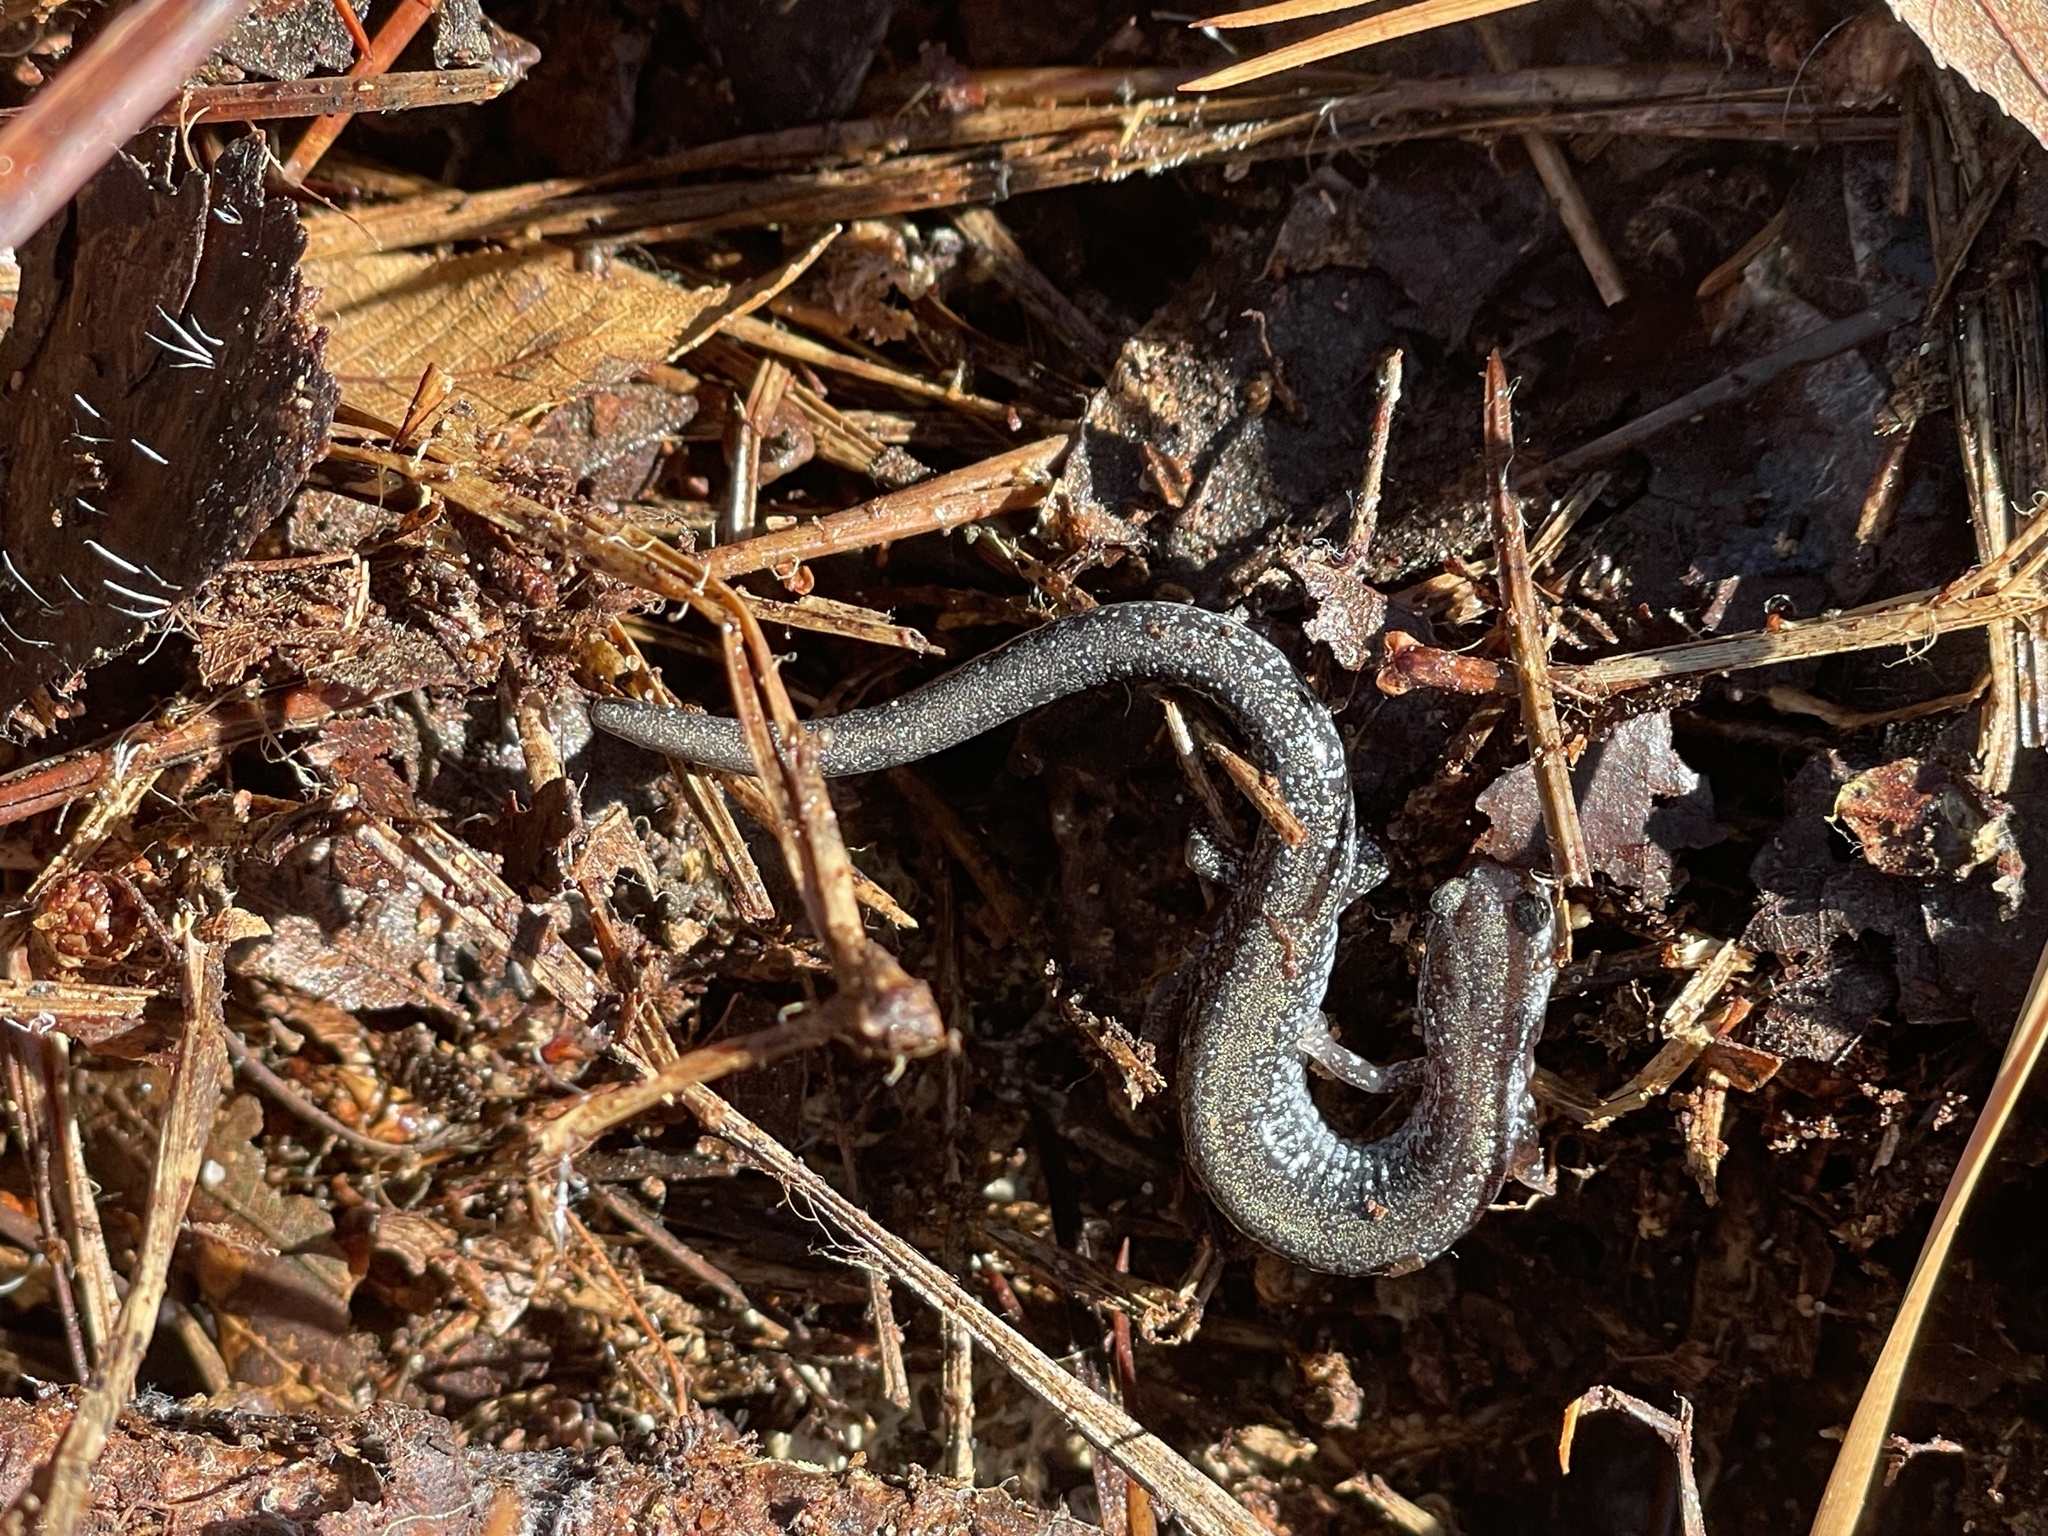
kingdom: Animalia
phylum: Chordata
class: Amphibia
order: Caudata
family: Plethodontidae
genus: Plethodon
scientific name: Plethodon cinereus
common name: Redback salamander
